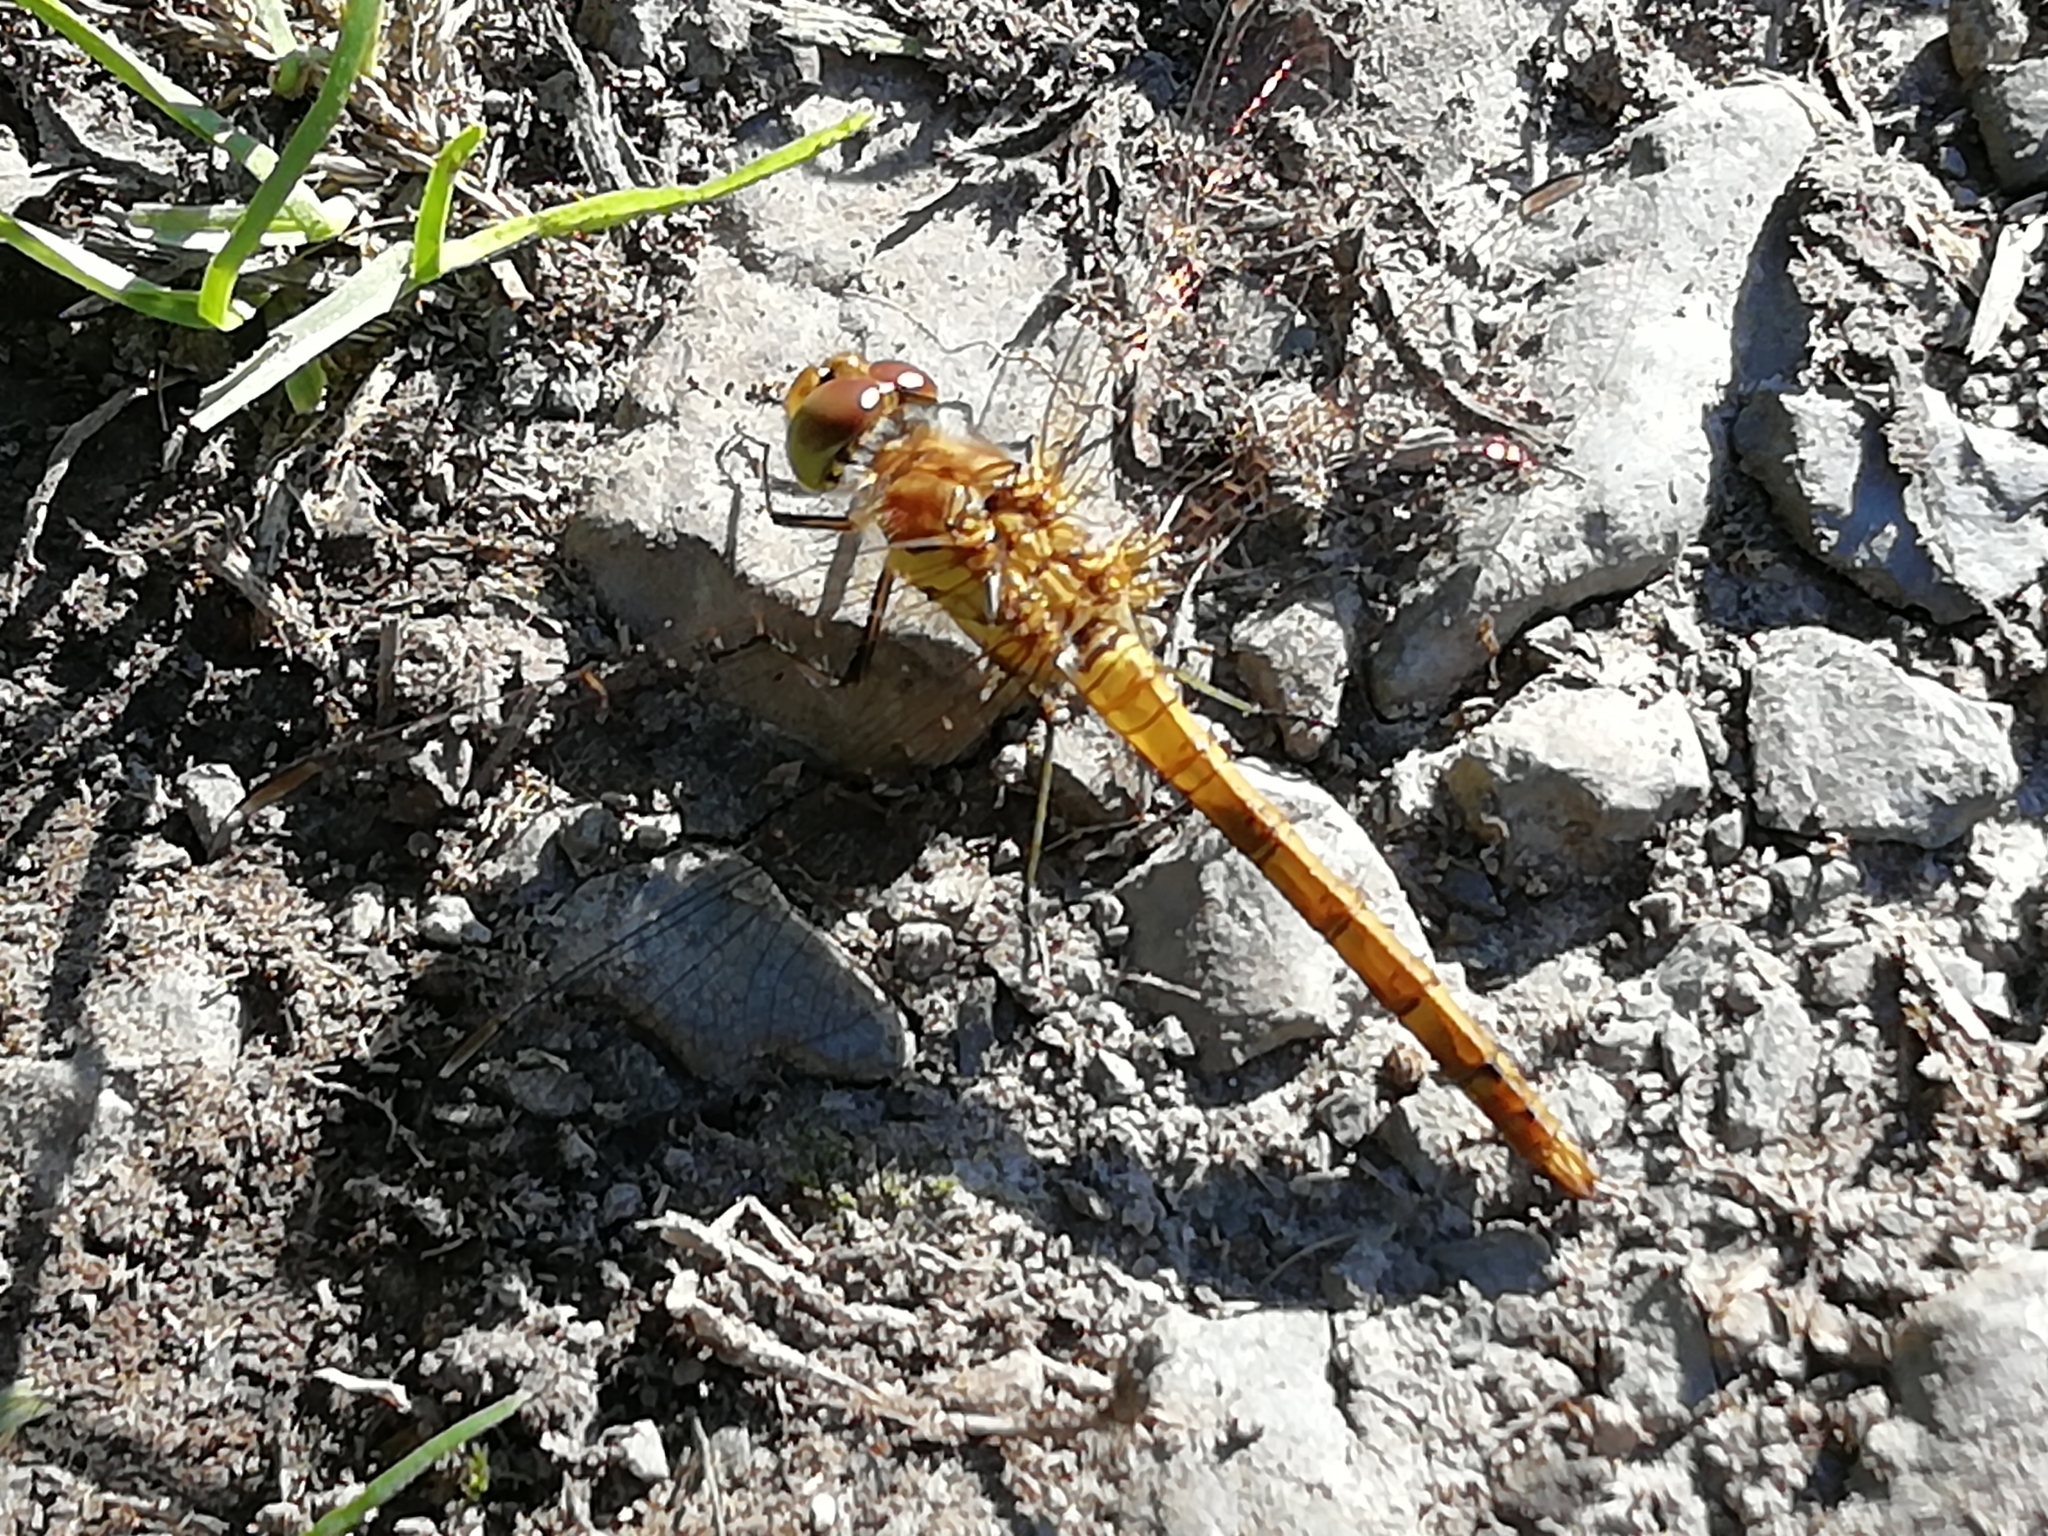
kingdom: Animalia
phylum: Arthropoda
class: Insecta
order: Odonata
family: Libellulidae
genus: Sympetrum
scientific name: Sympetrum striolatum
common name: Common darter
